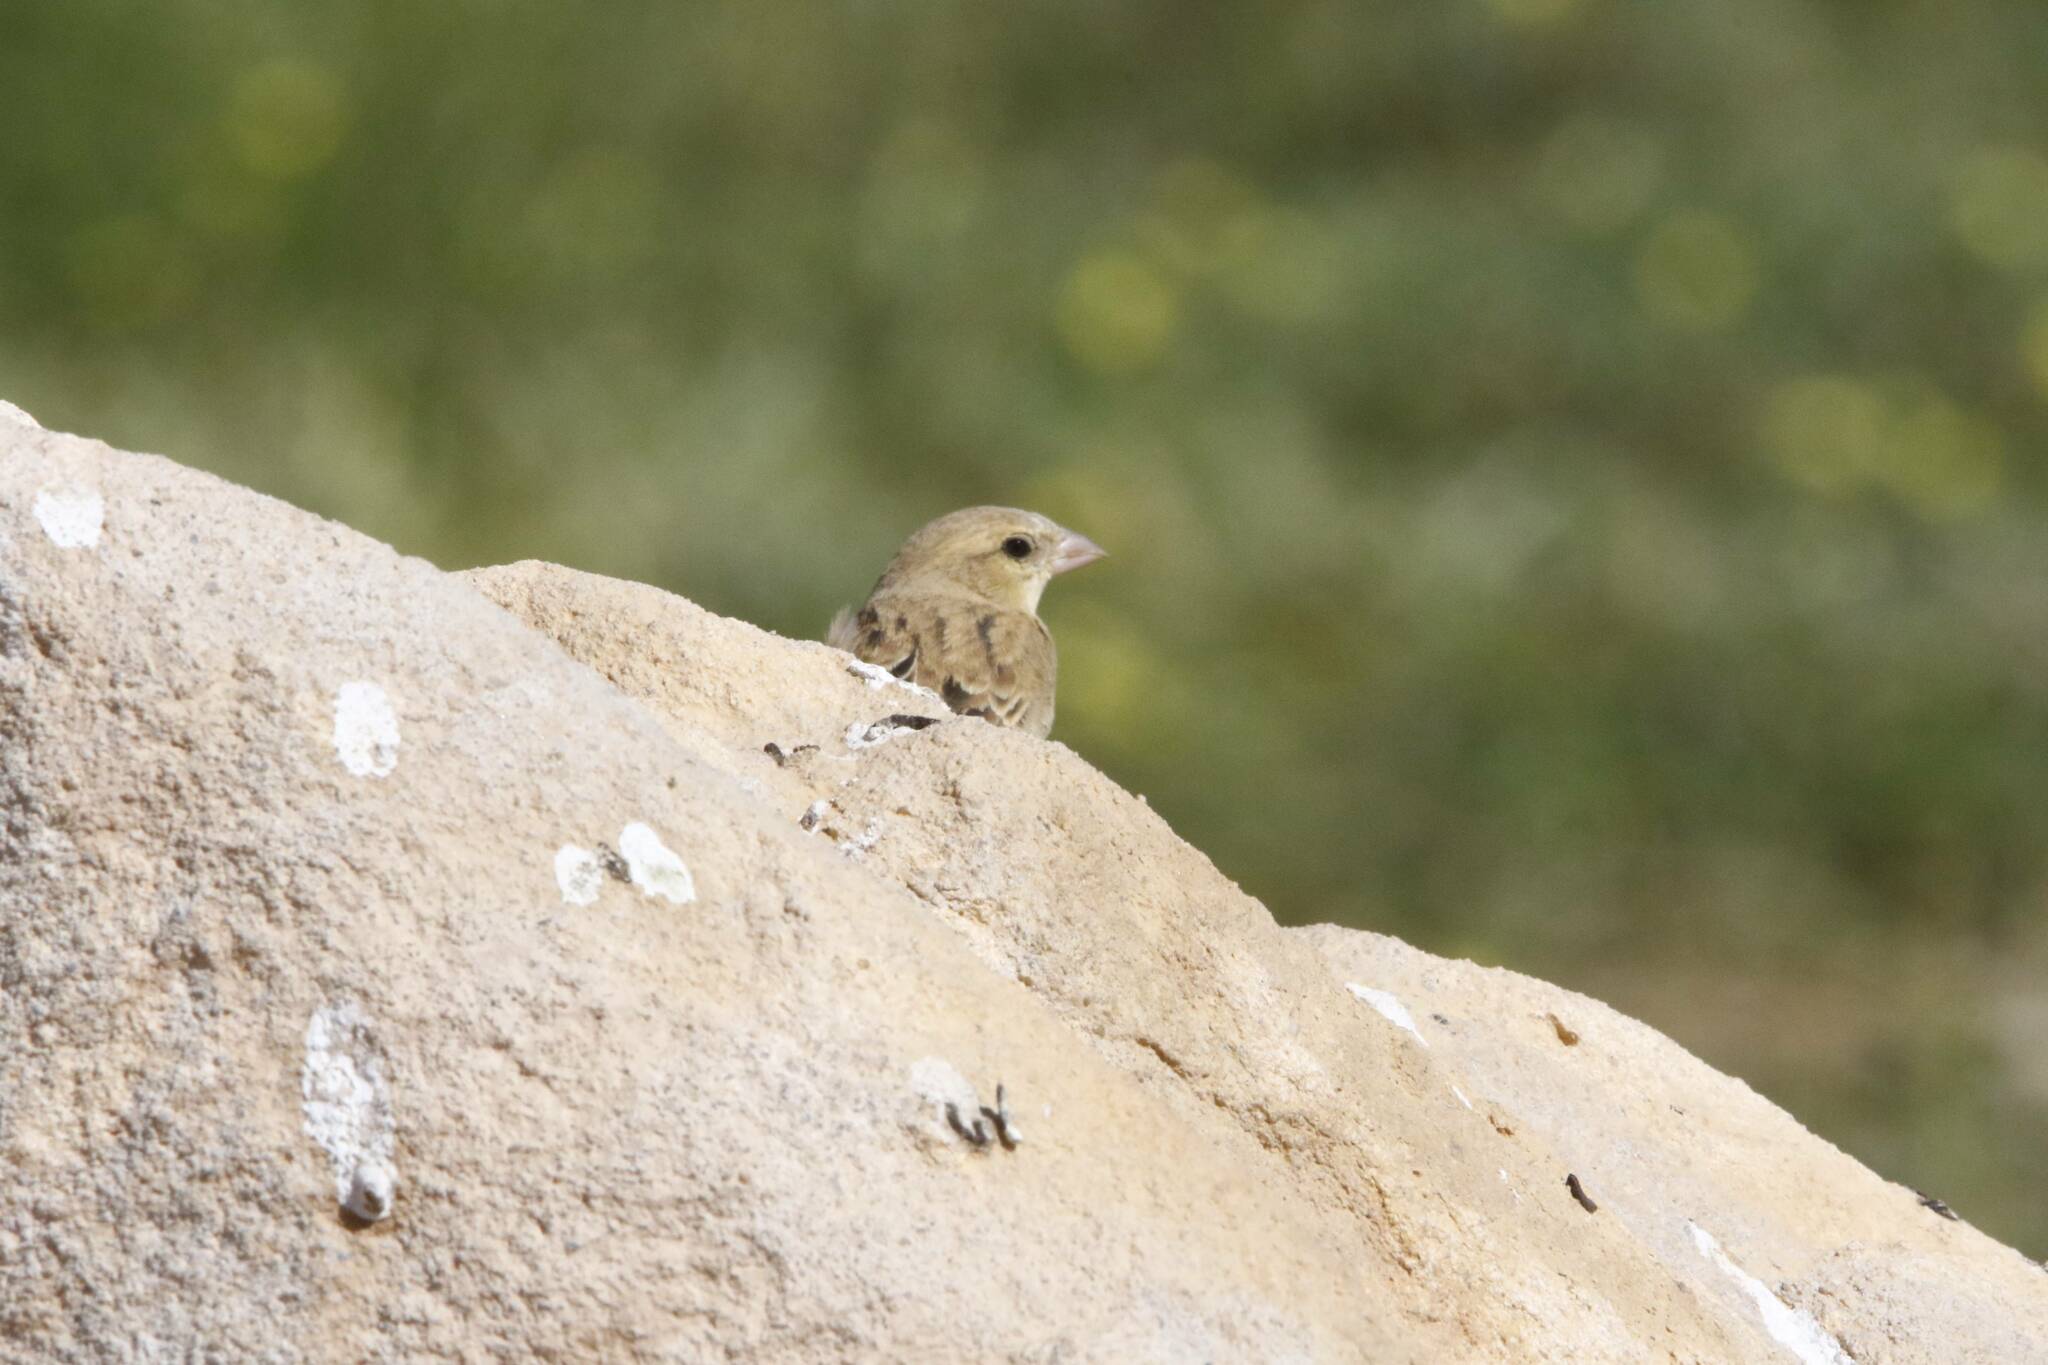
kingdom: Animalia
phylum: Chordata
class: Aves
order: Passeriformes
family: Passeridae
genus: Passer
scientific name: Passer luteus
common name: Sudan golden sparrow
